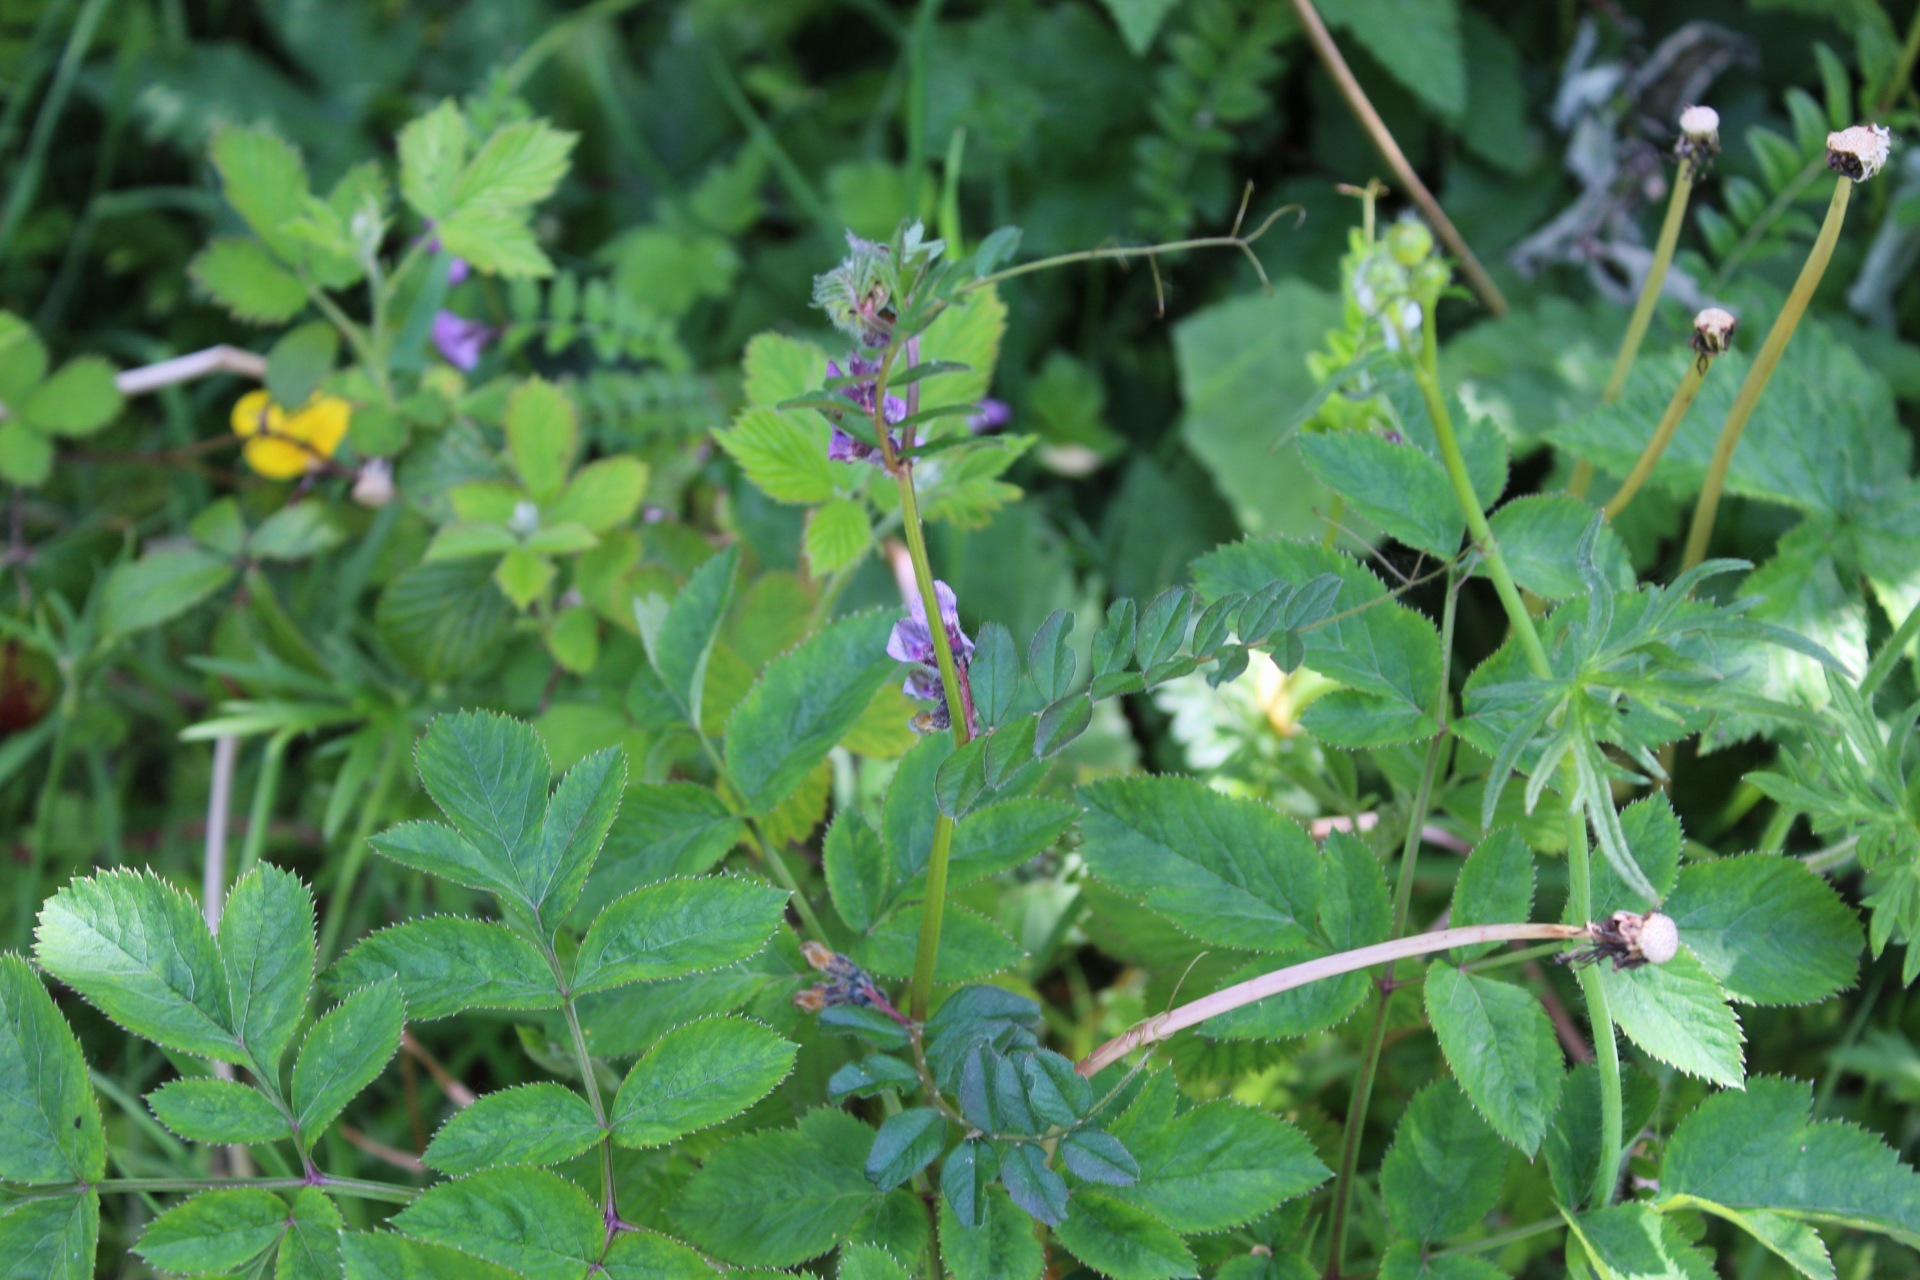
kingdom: Plantae
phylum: Tracheophyta
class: Magnoliopsida
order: Fabales
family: Fabaceae
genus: Vicia
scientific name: Vicia sepium
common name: Bush vetch
